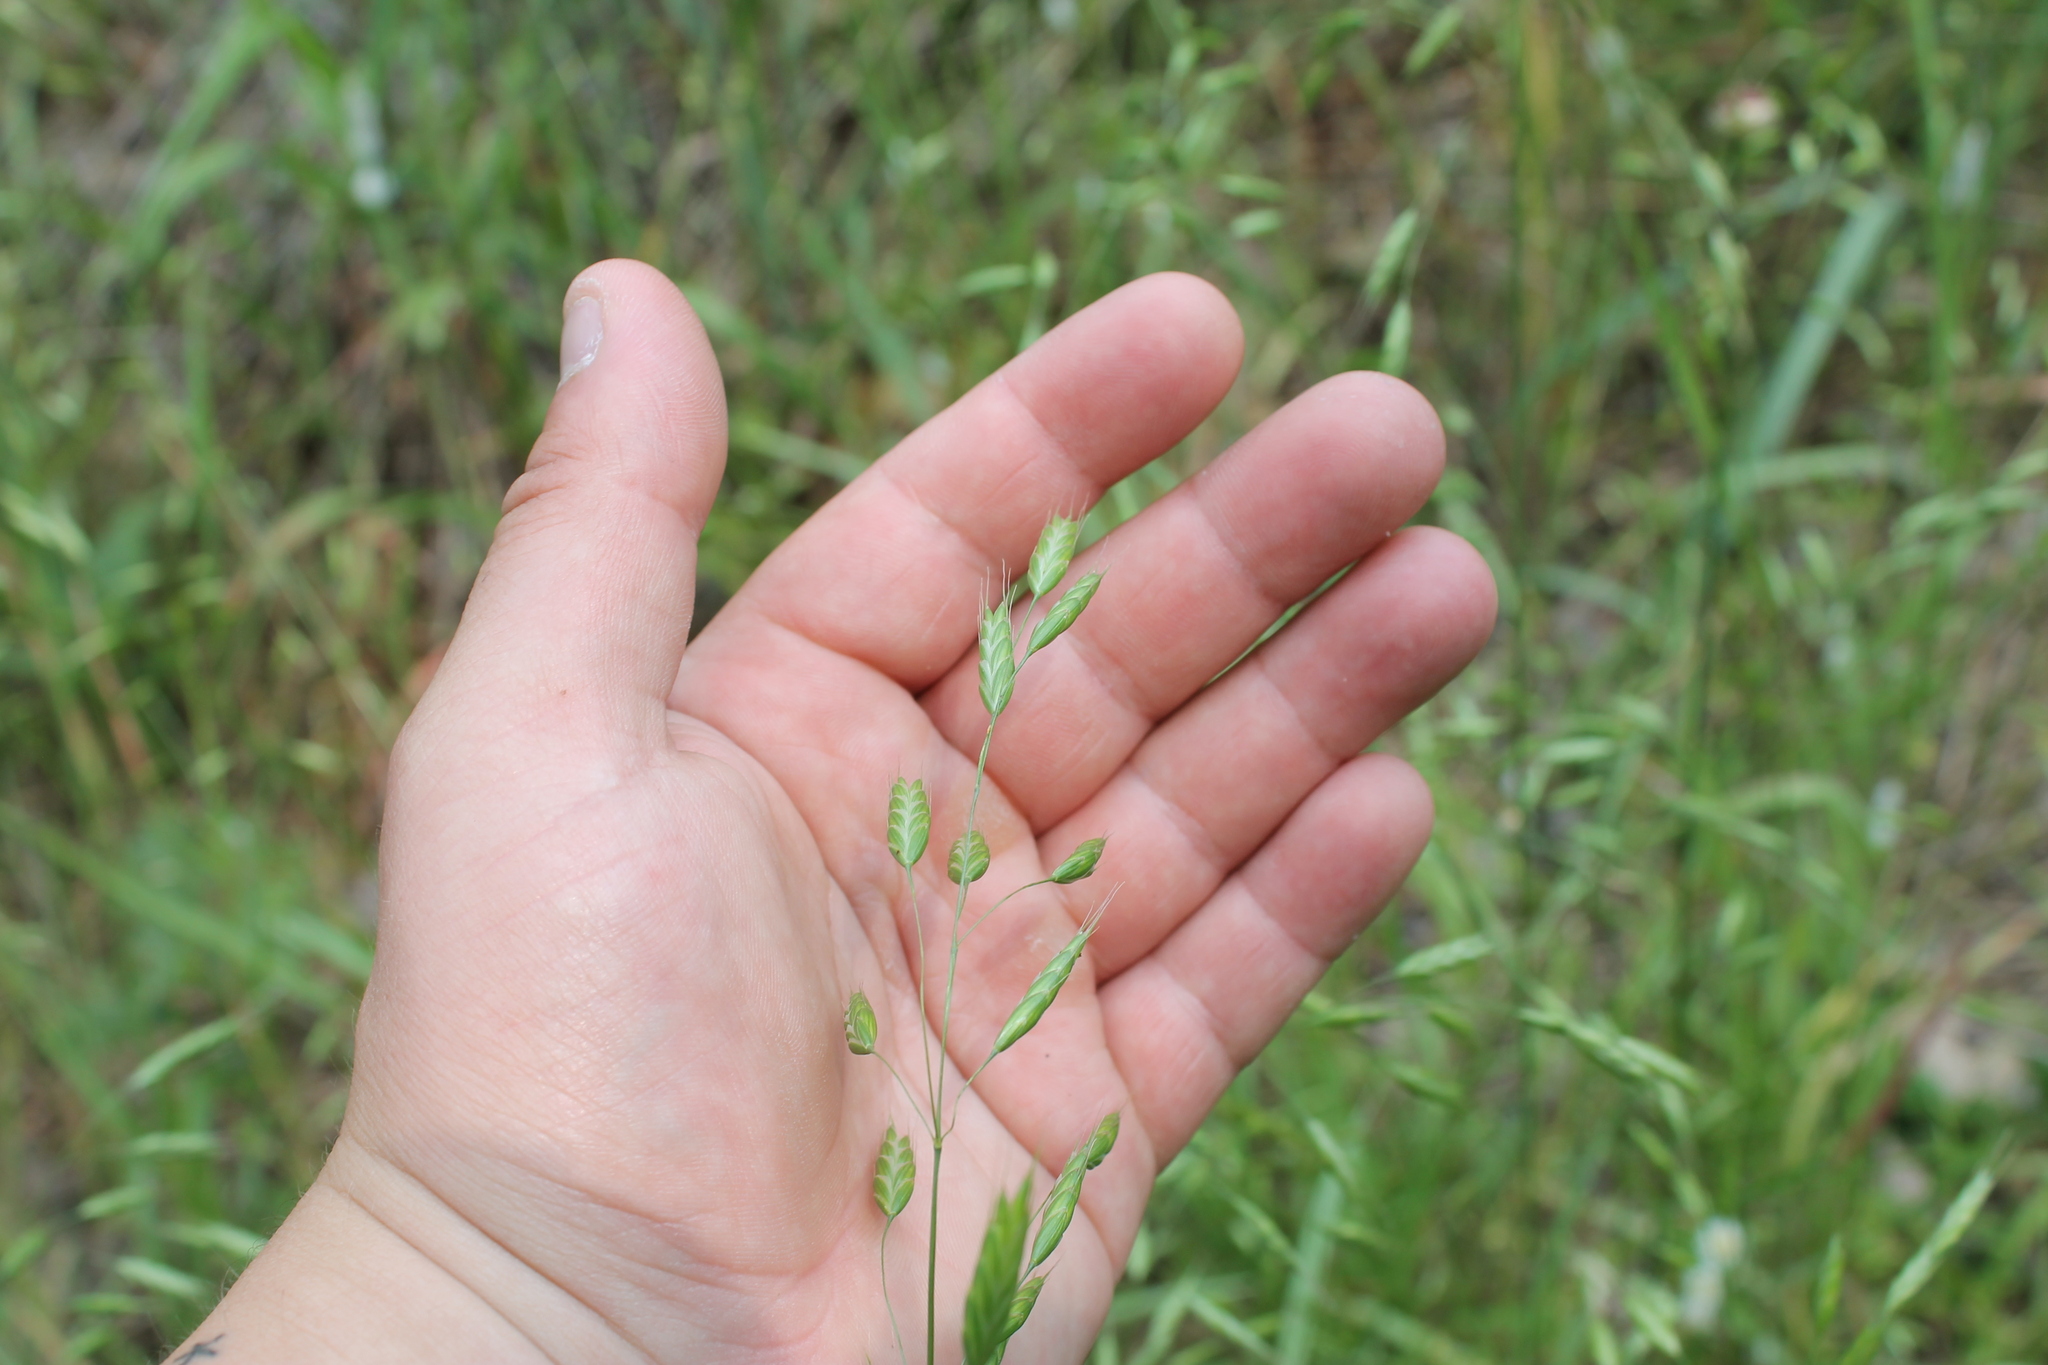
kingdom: Plantae
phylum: Tracheophyta
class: Liliopsida
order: Poales
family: Poaceae
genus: Bromus
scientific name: Bromus commutatus
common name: Meadow brome
